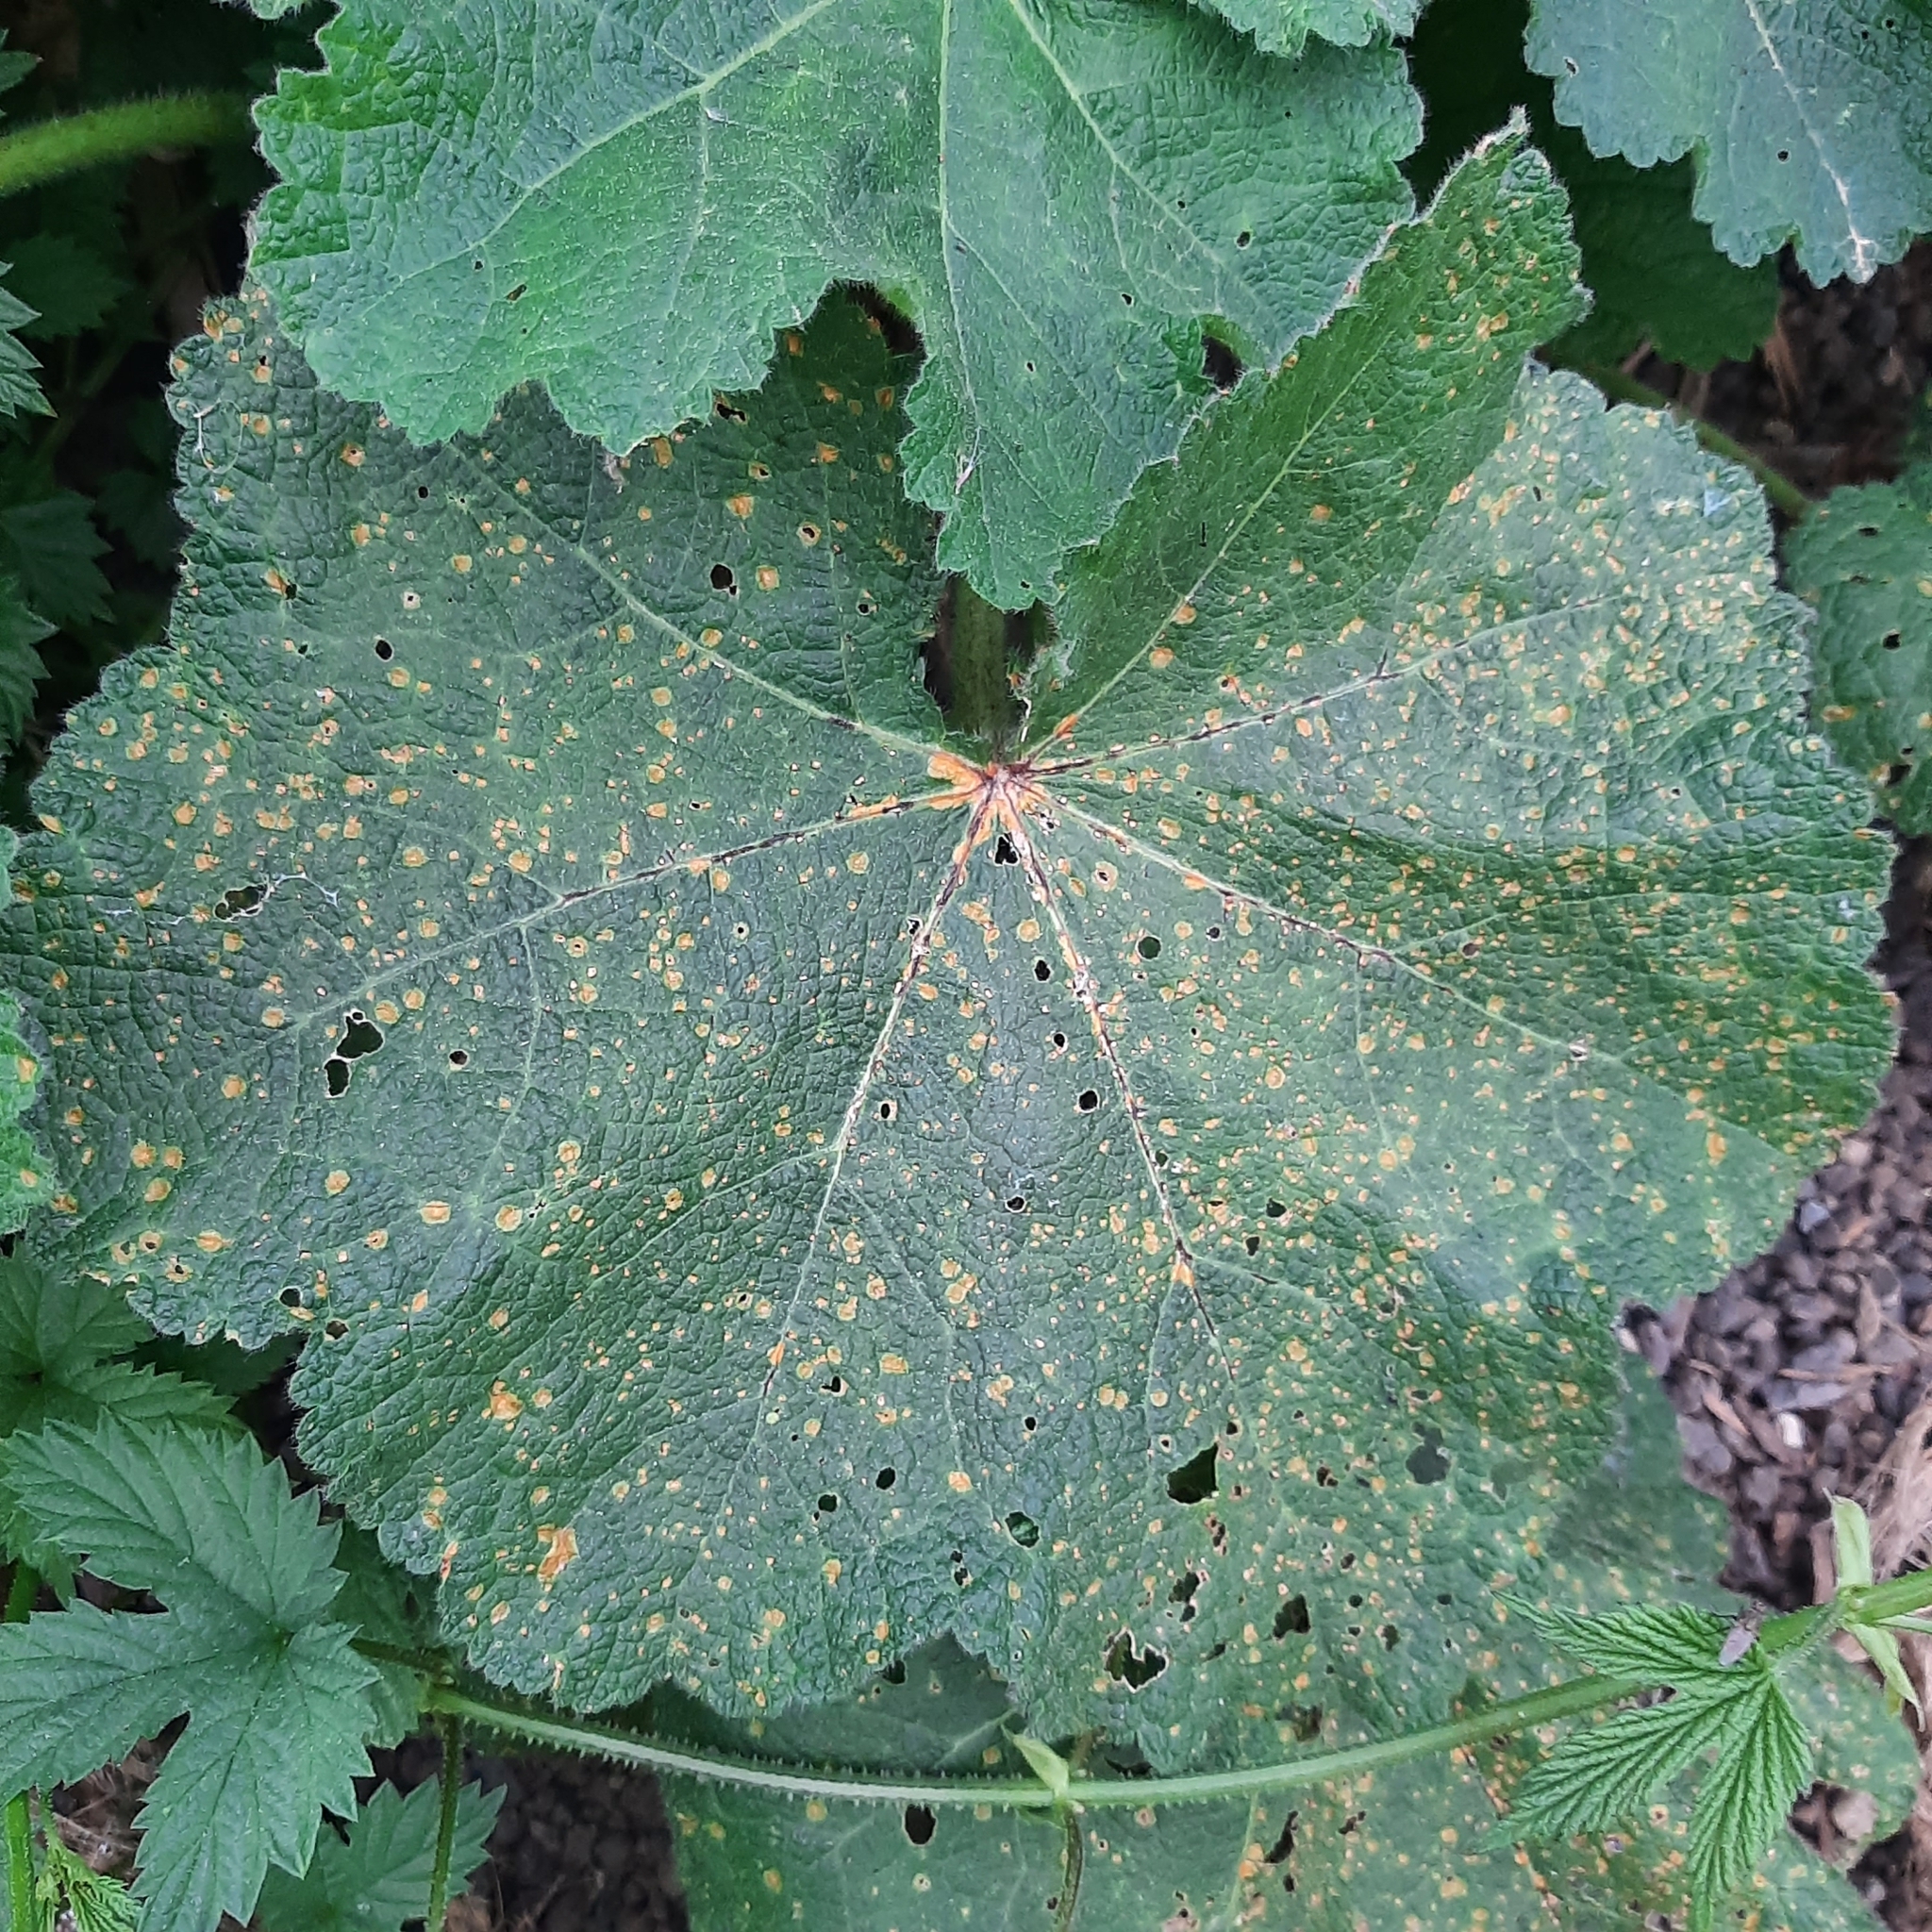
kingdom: Fungi
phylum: Basidiomycota
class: Pucciniomycetes
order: Pucciniales
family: Pucciniaceae
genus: Puccinia
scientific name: Puccinia malvacearum
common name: Hollyhock rust
